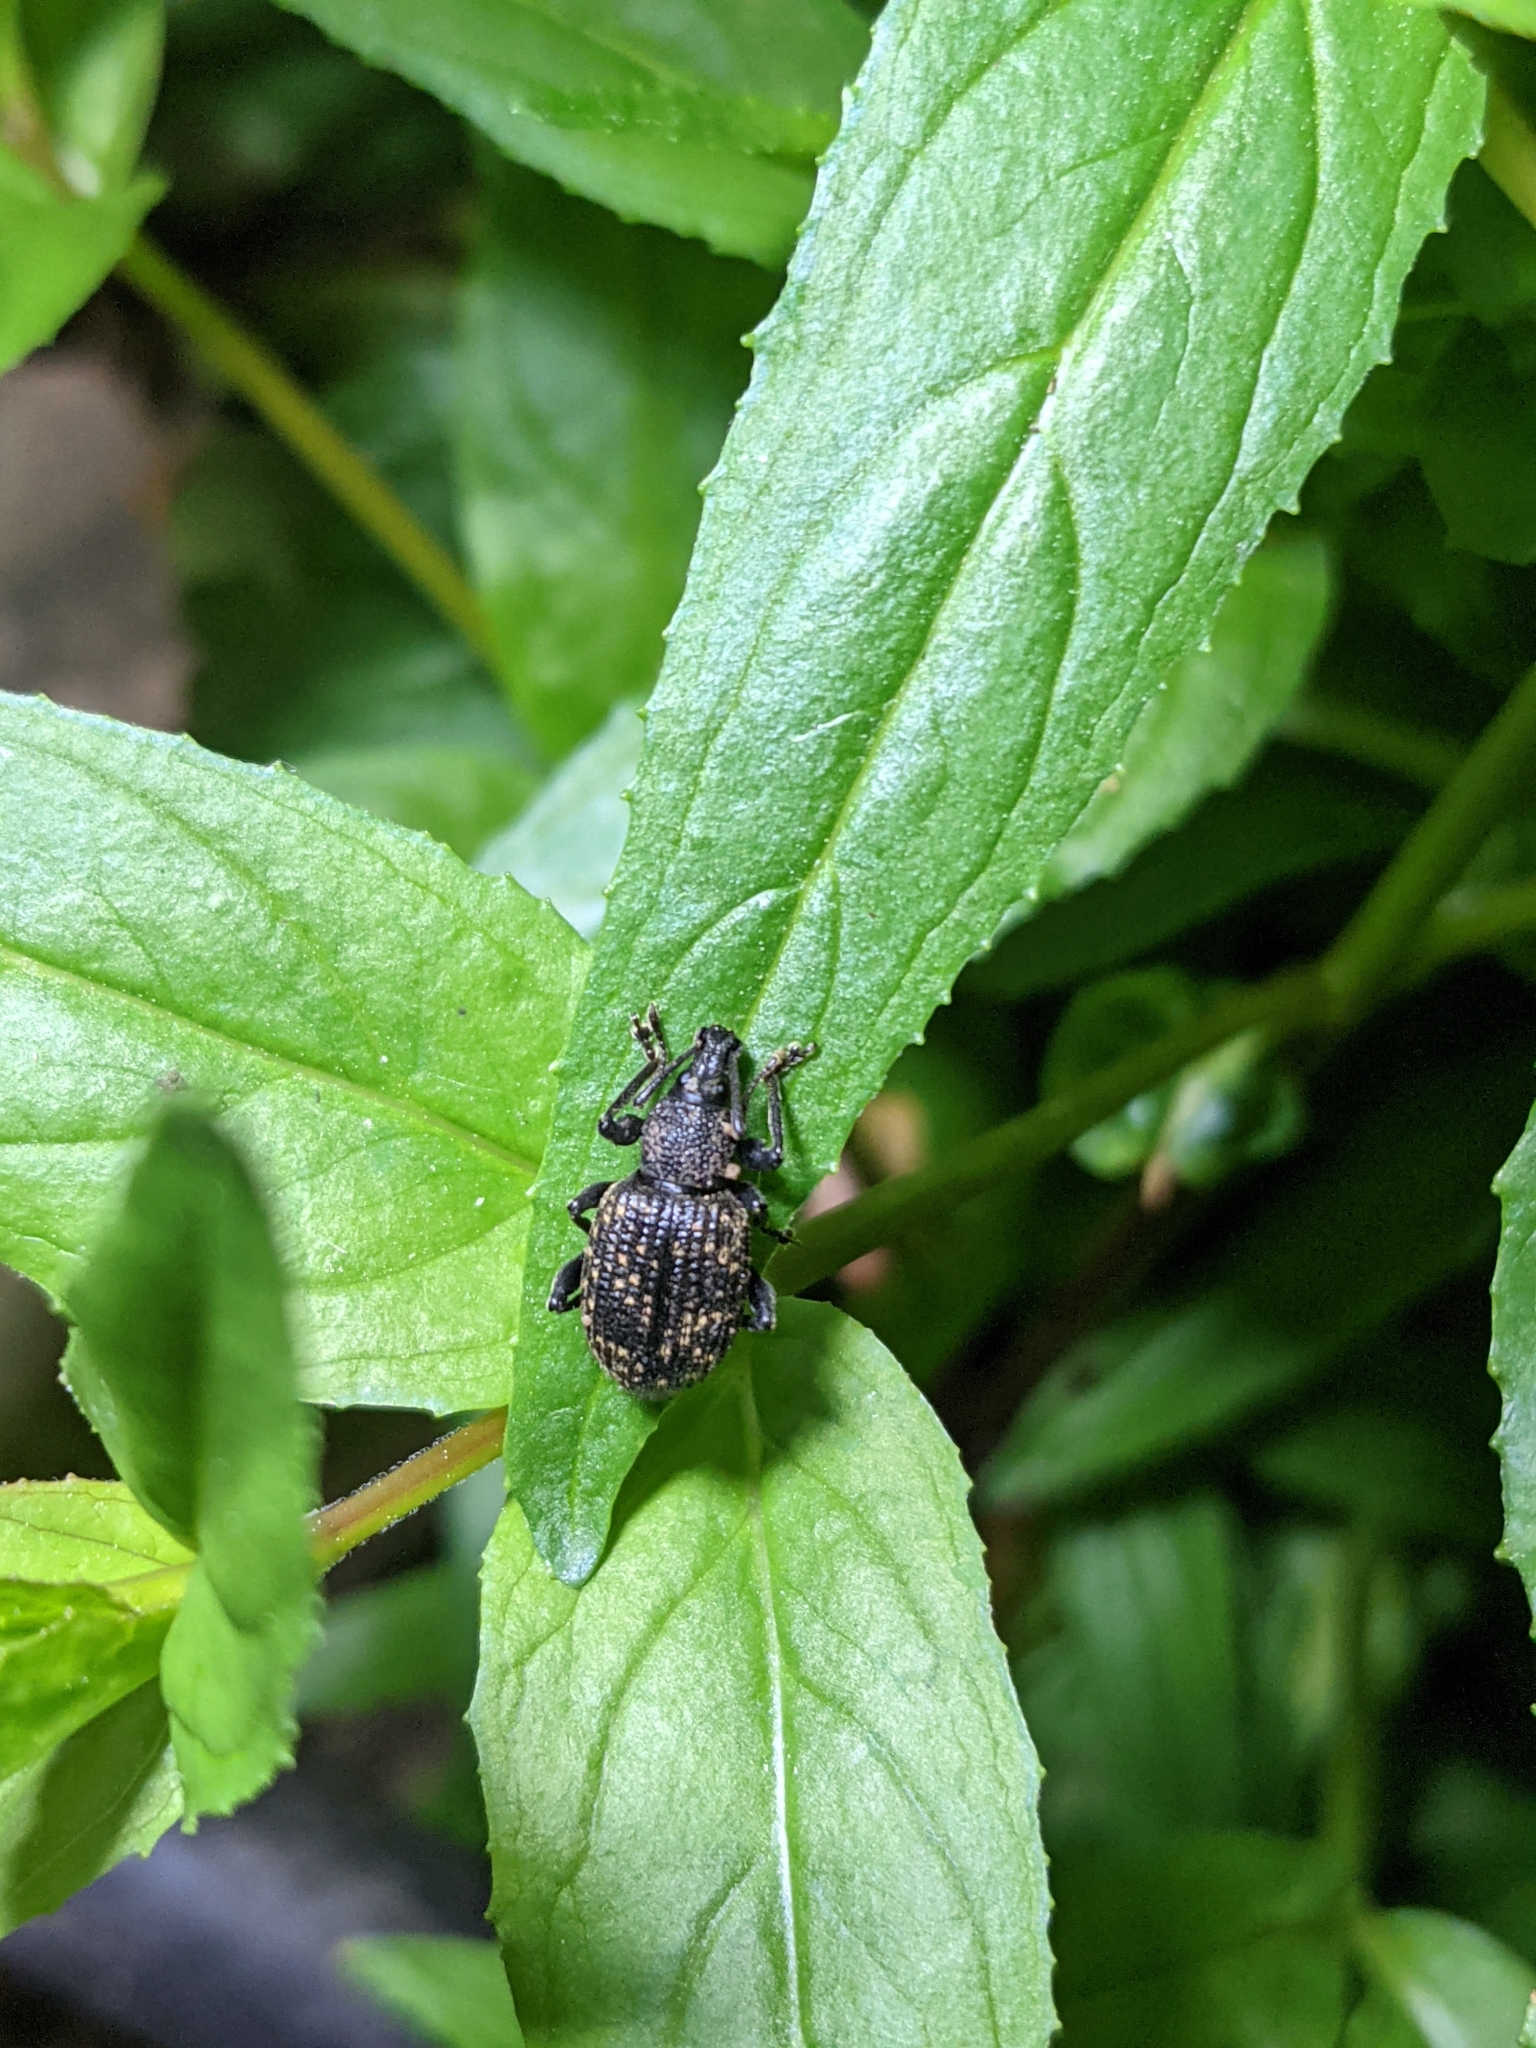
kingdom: Animalia
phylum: Arthropoda
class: Insecta
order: Coleoptera
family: Curculionidae
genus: Otiorhynchus
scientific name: Otiorhynchus sulcatus
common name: Black vine weevil
